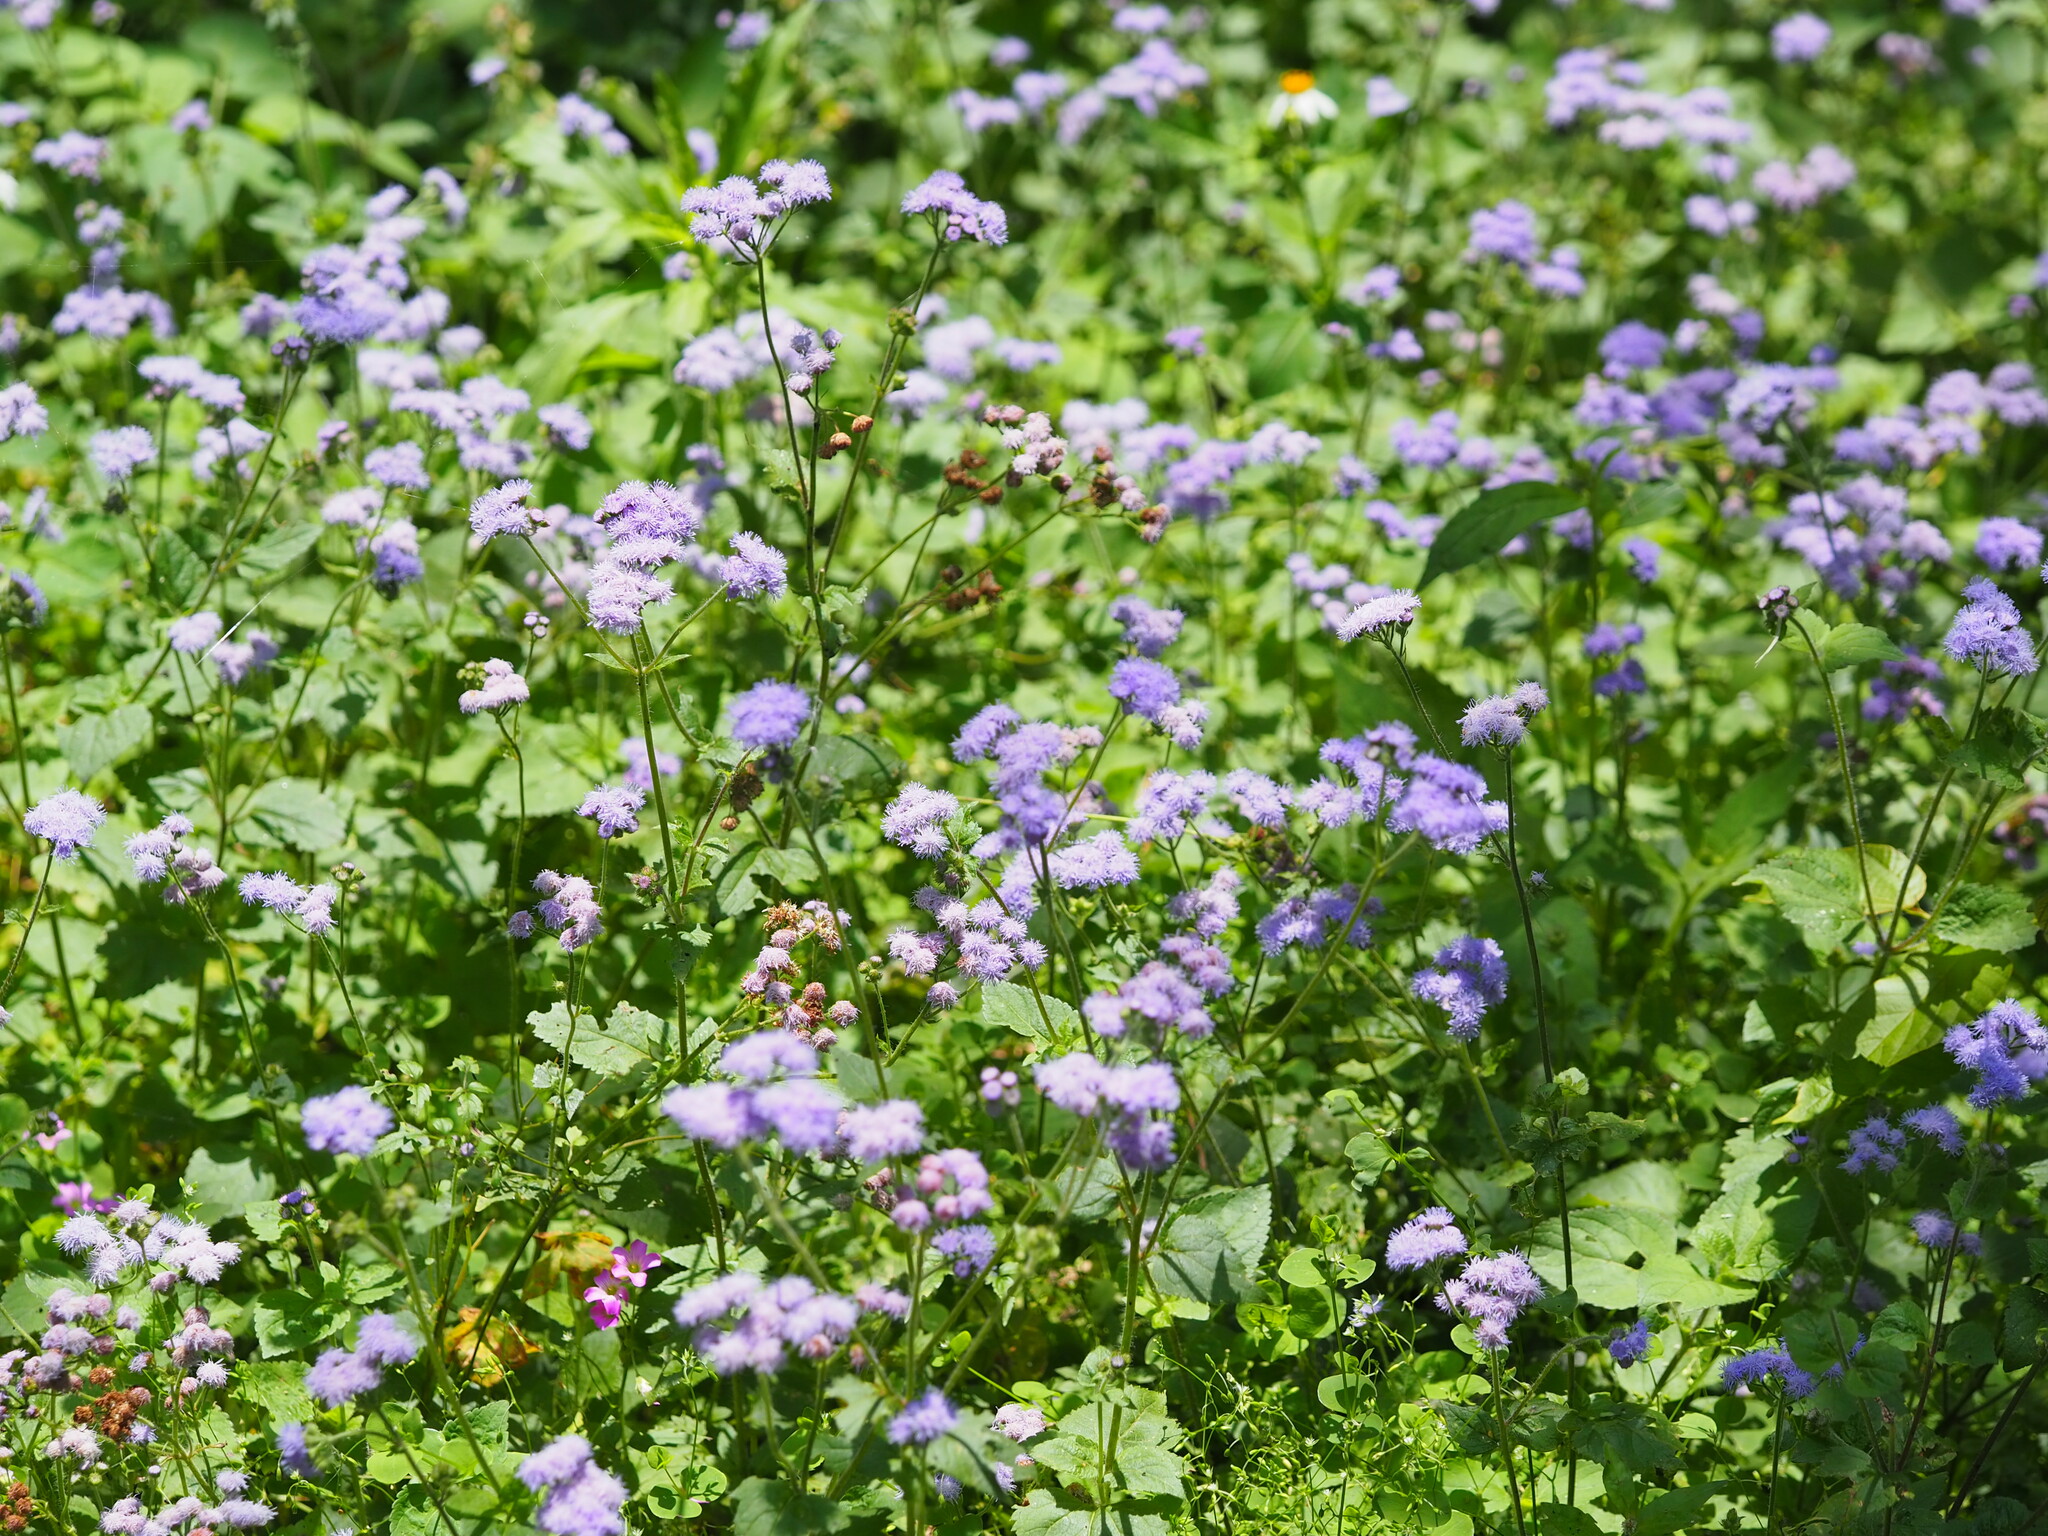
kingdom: Plantae
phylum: Tracheophyta
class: Magnoliopsida
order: Asterales
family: Asteraceae
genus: Ageratum
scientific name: Ageratum houstonianum
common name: Bluemink
